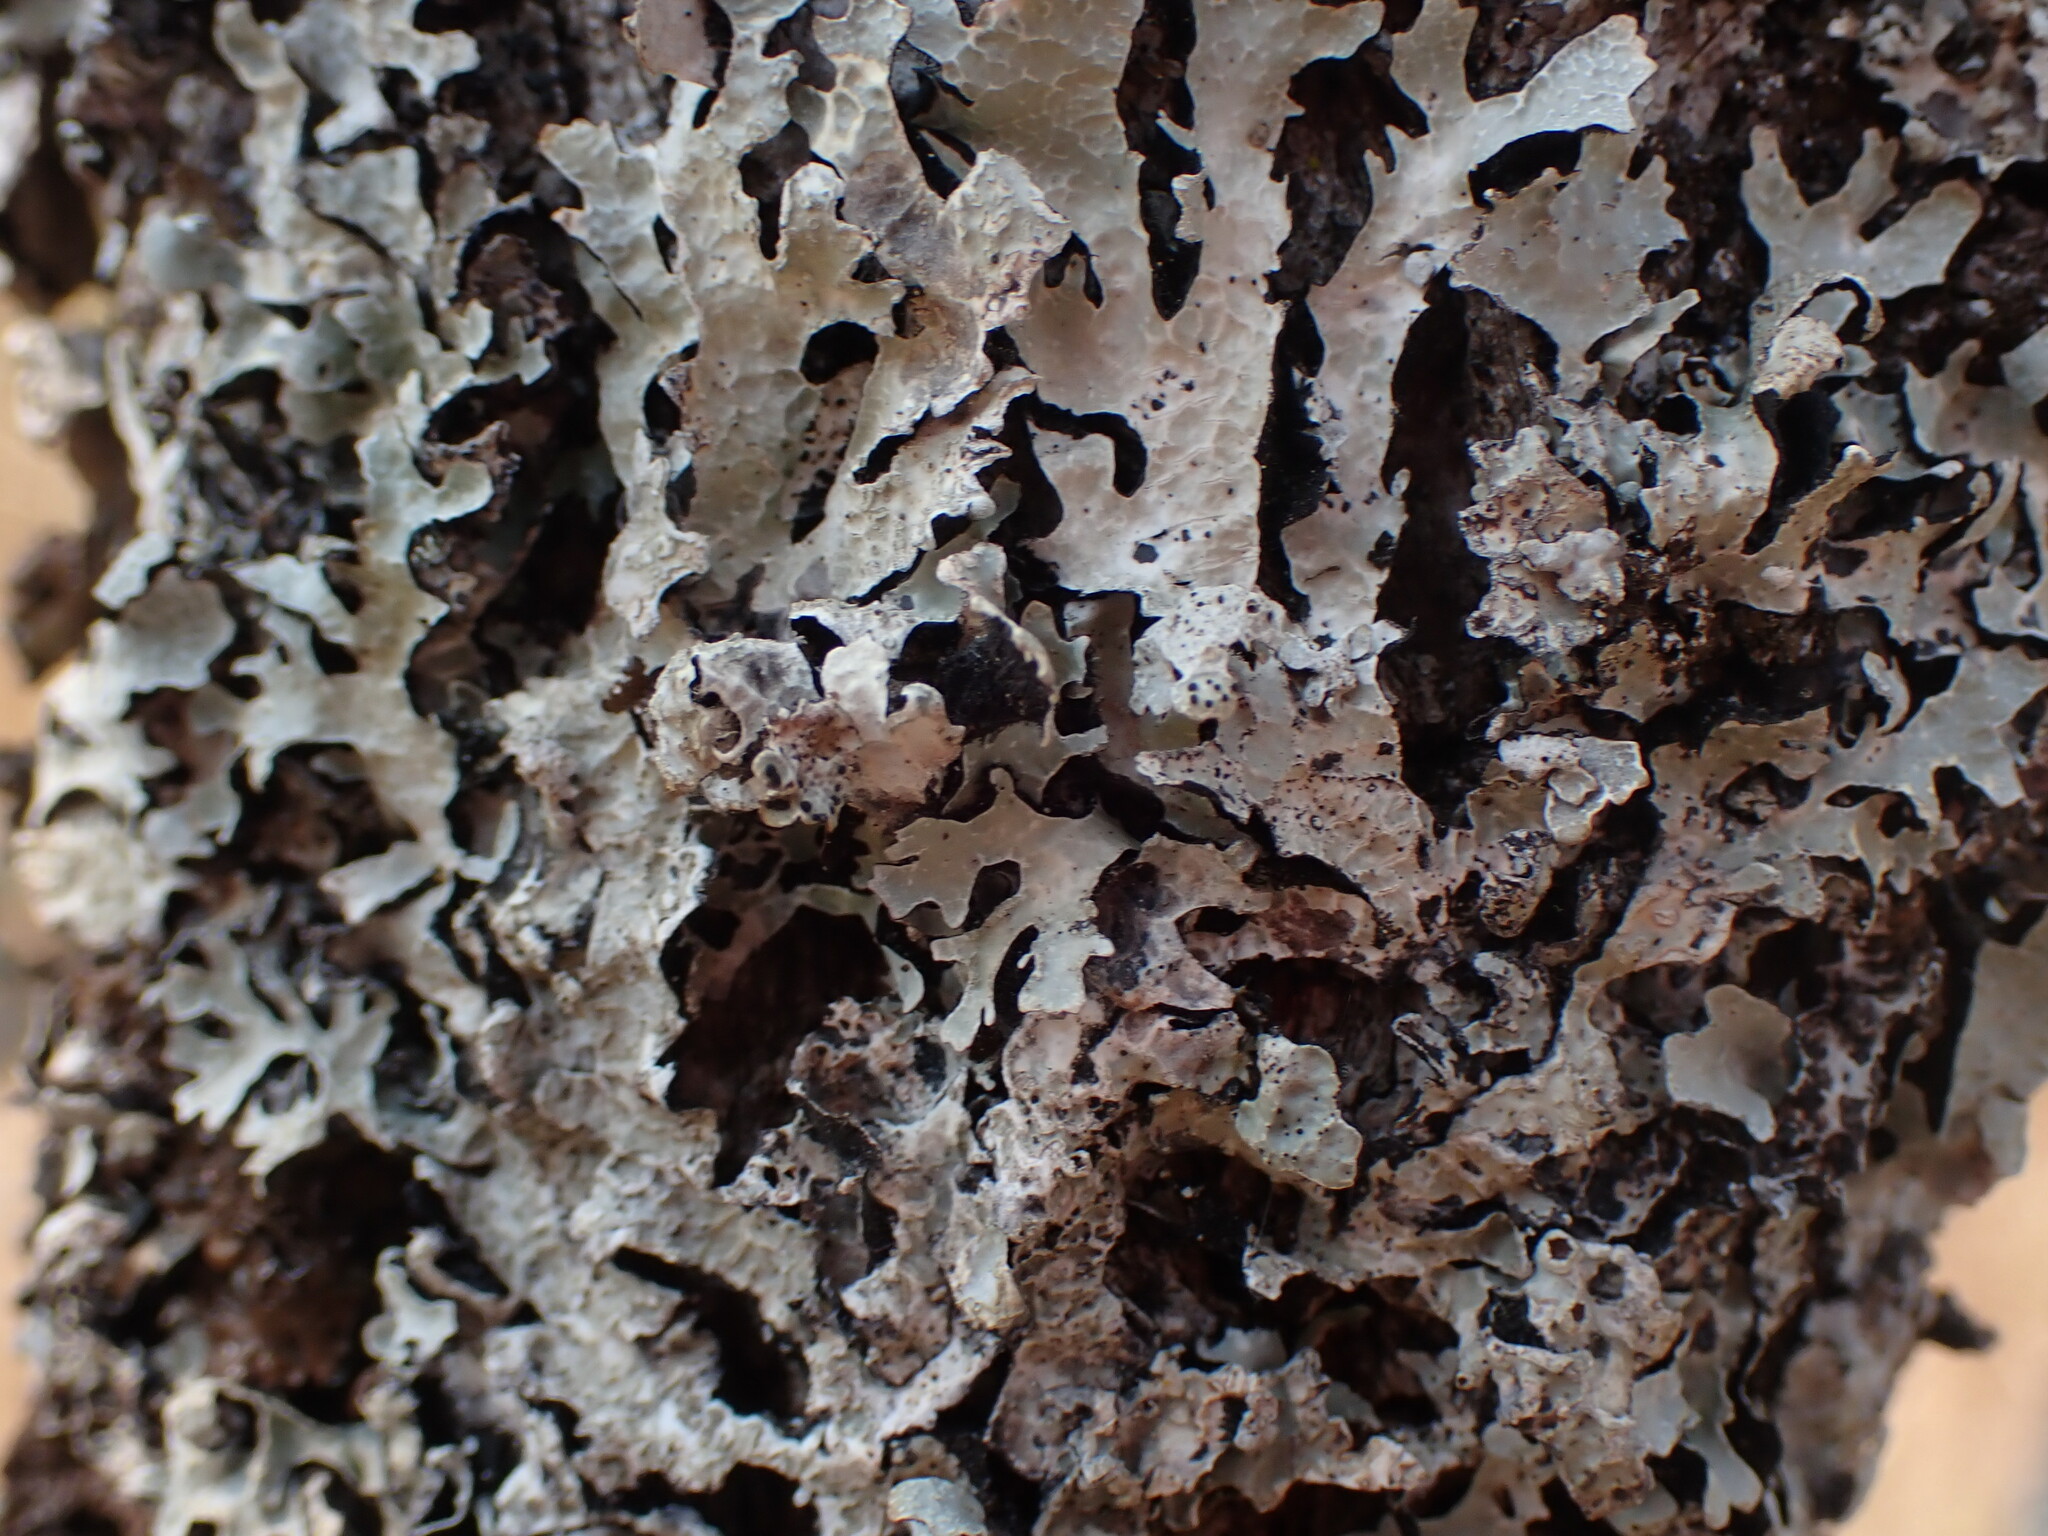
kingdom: Fungi
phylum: Ascomycota
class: Lecanoromycetes
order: Lecanorales
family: Parmeliaceae
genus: Parmelia
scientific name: Parmelia sulcata
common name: Netted shield lichen
